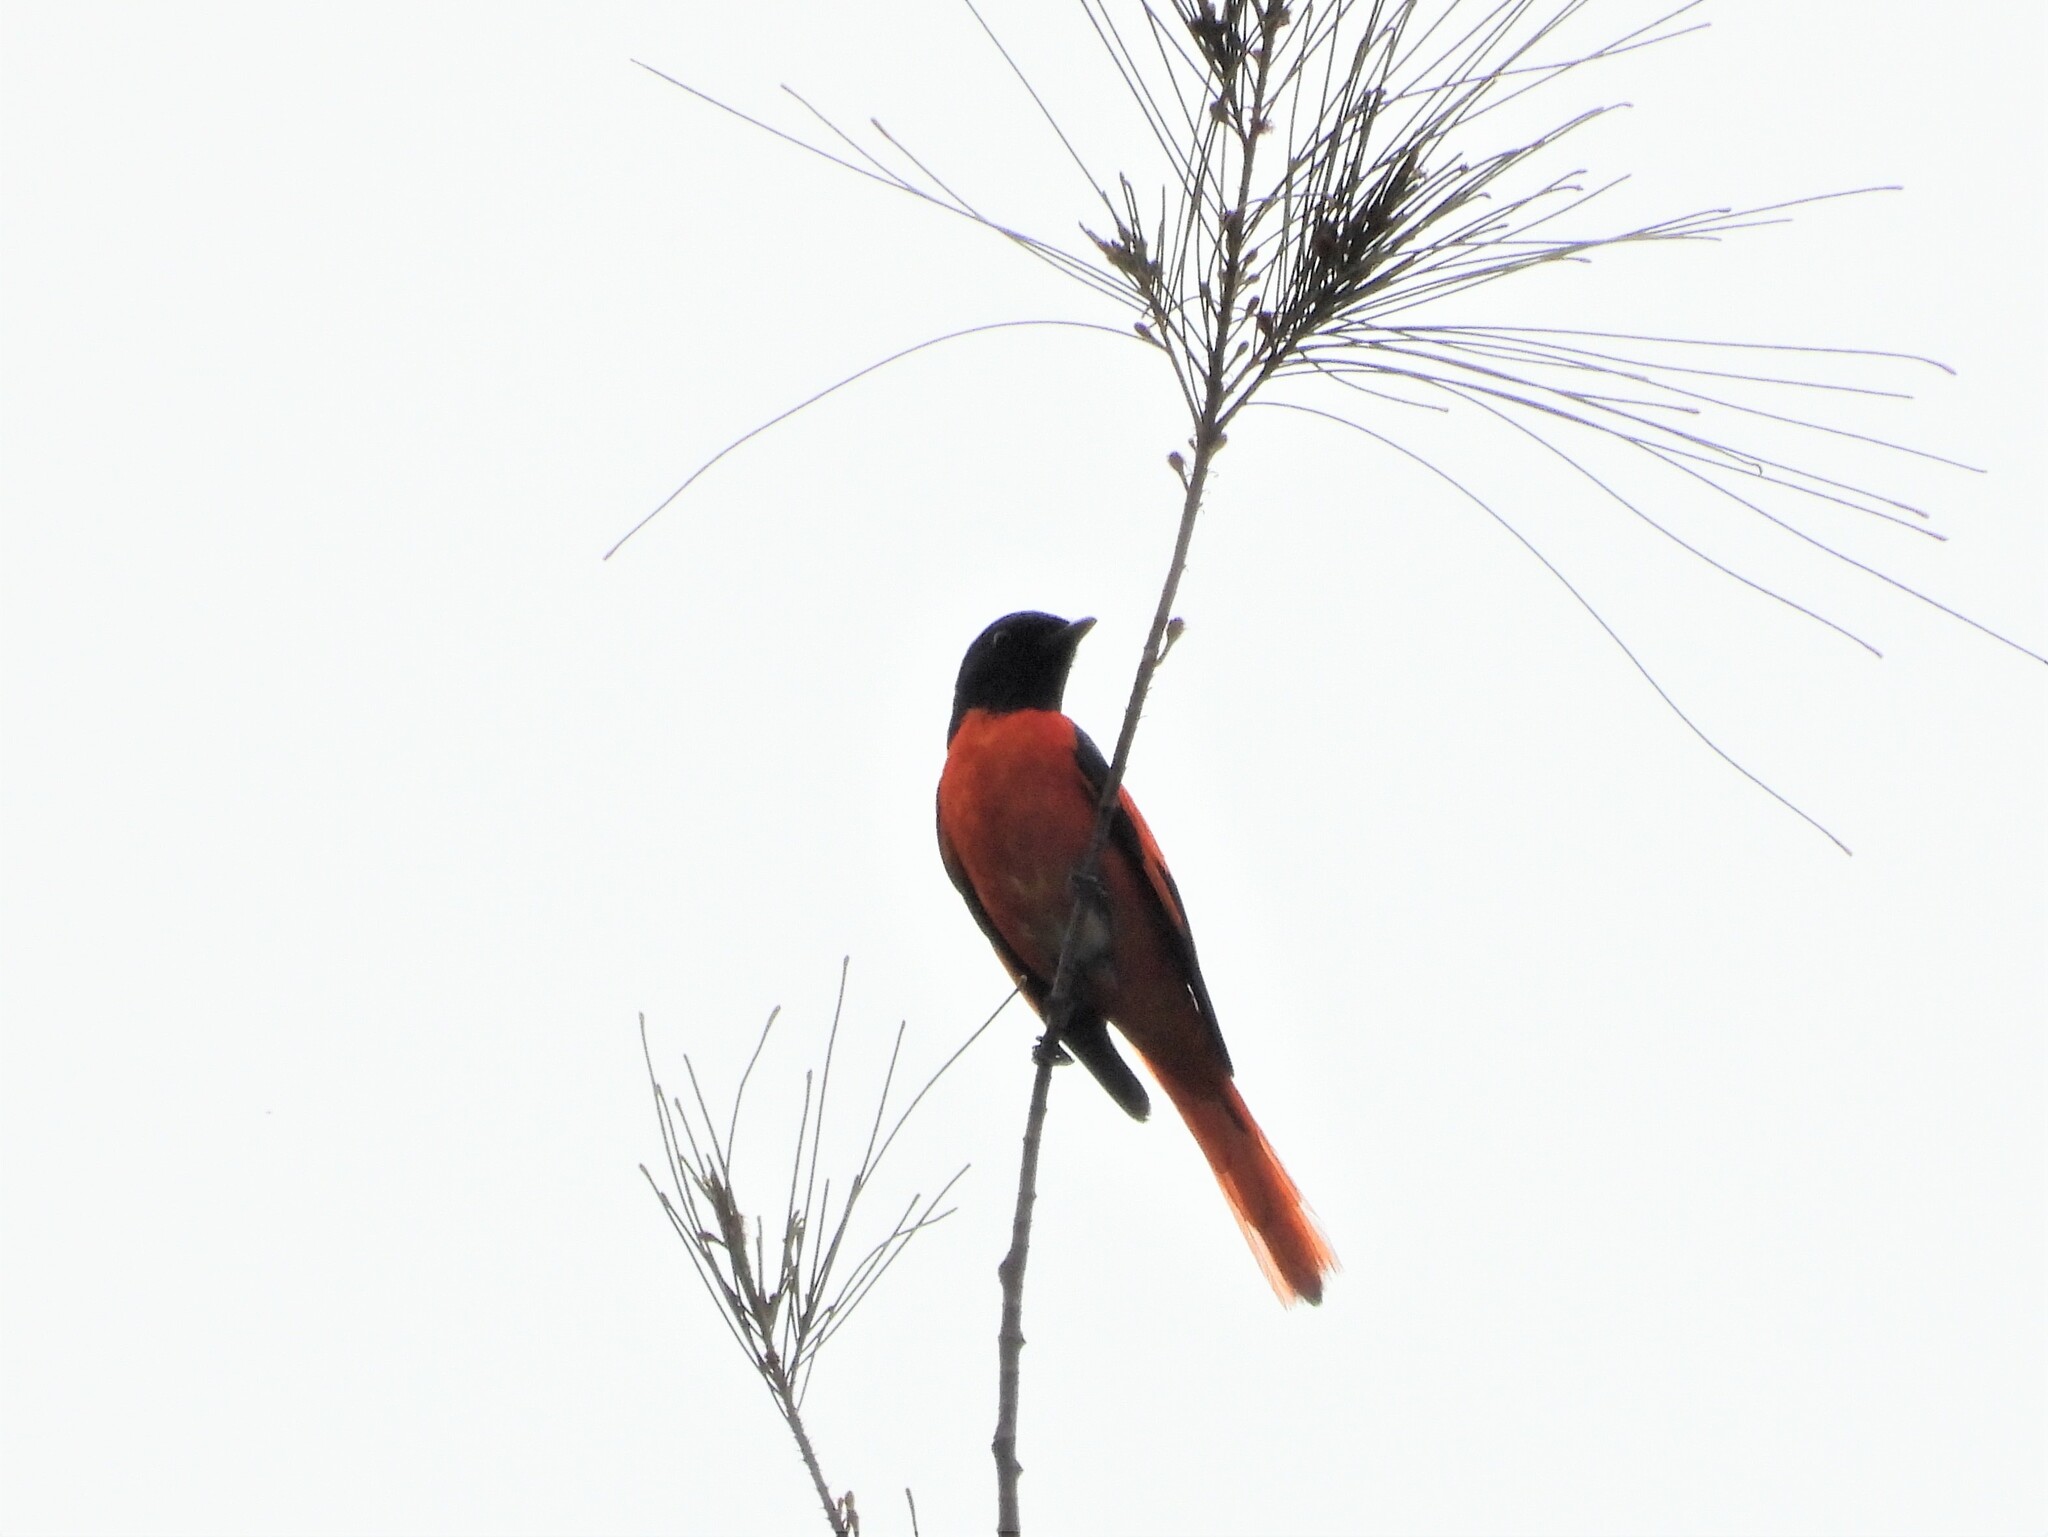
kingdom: Animalia
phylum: Chordata
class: Aves
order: Passeriformes
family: Campephagidae
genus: Pericrocotus
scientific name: Pericrocotus speciosus
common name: Scarlet minivet
